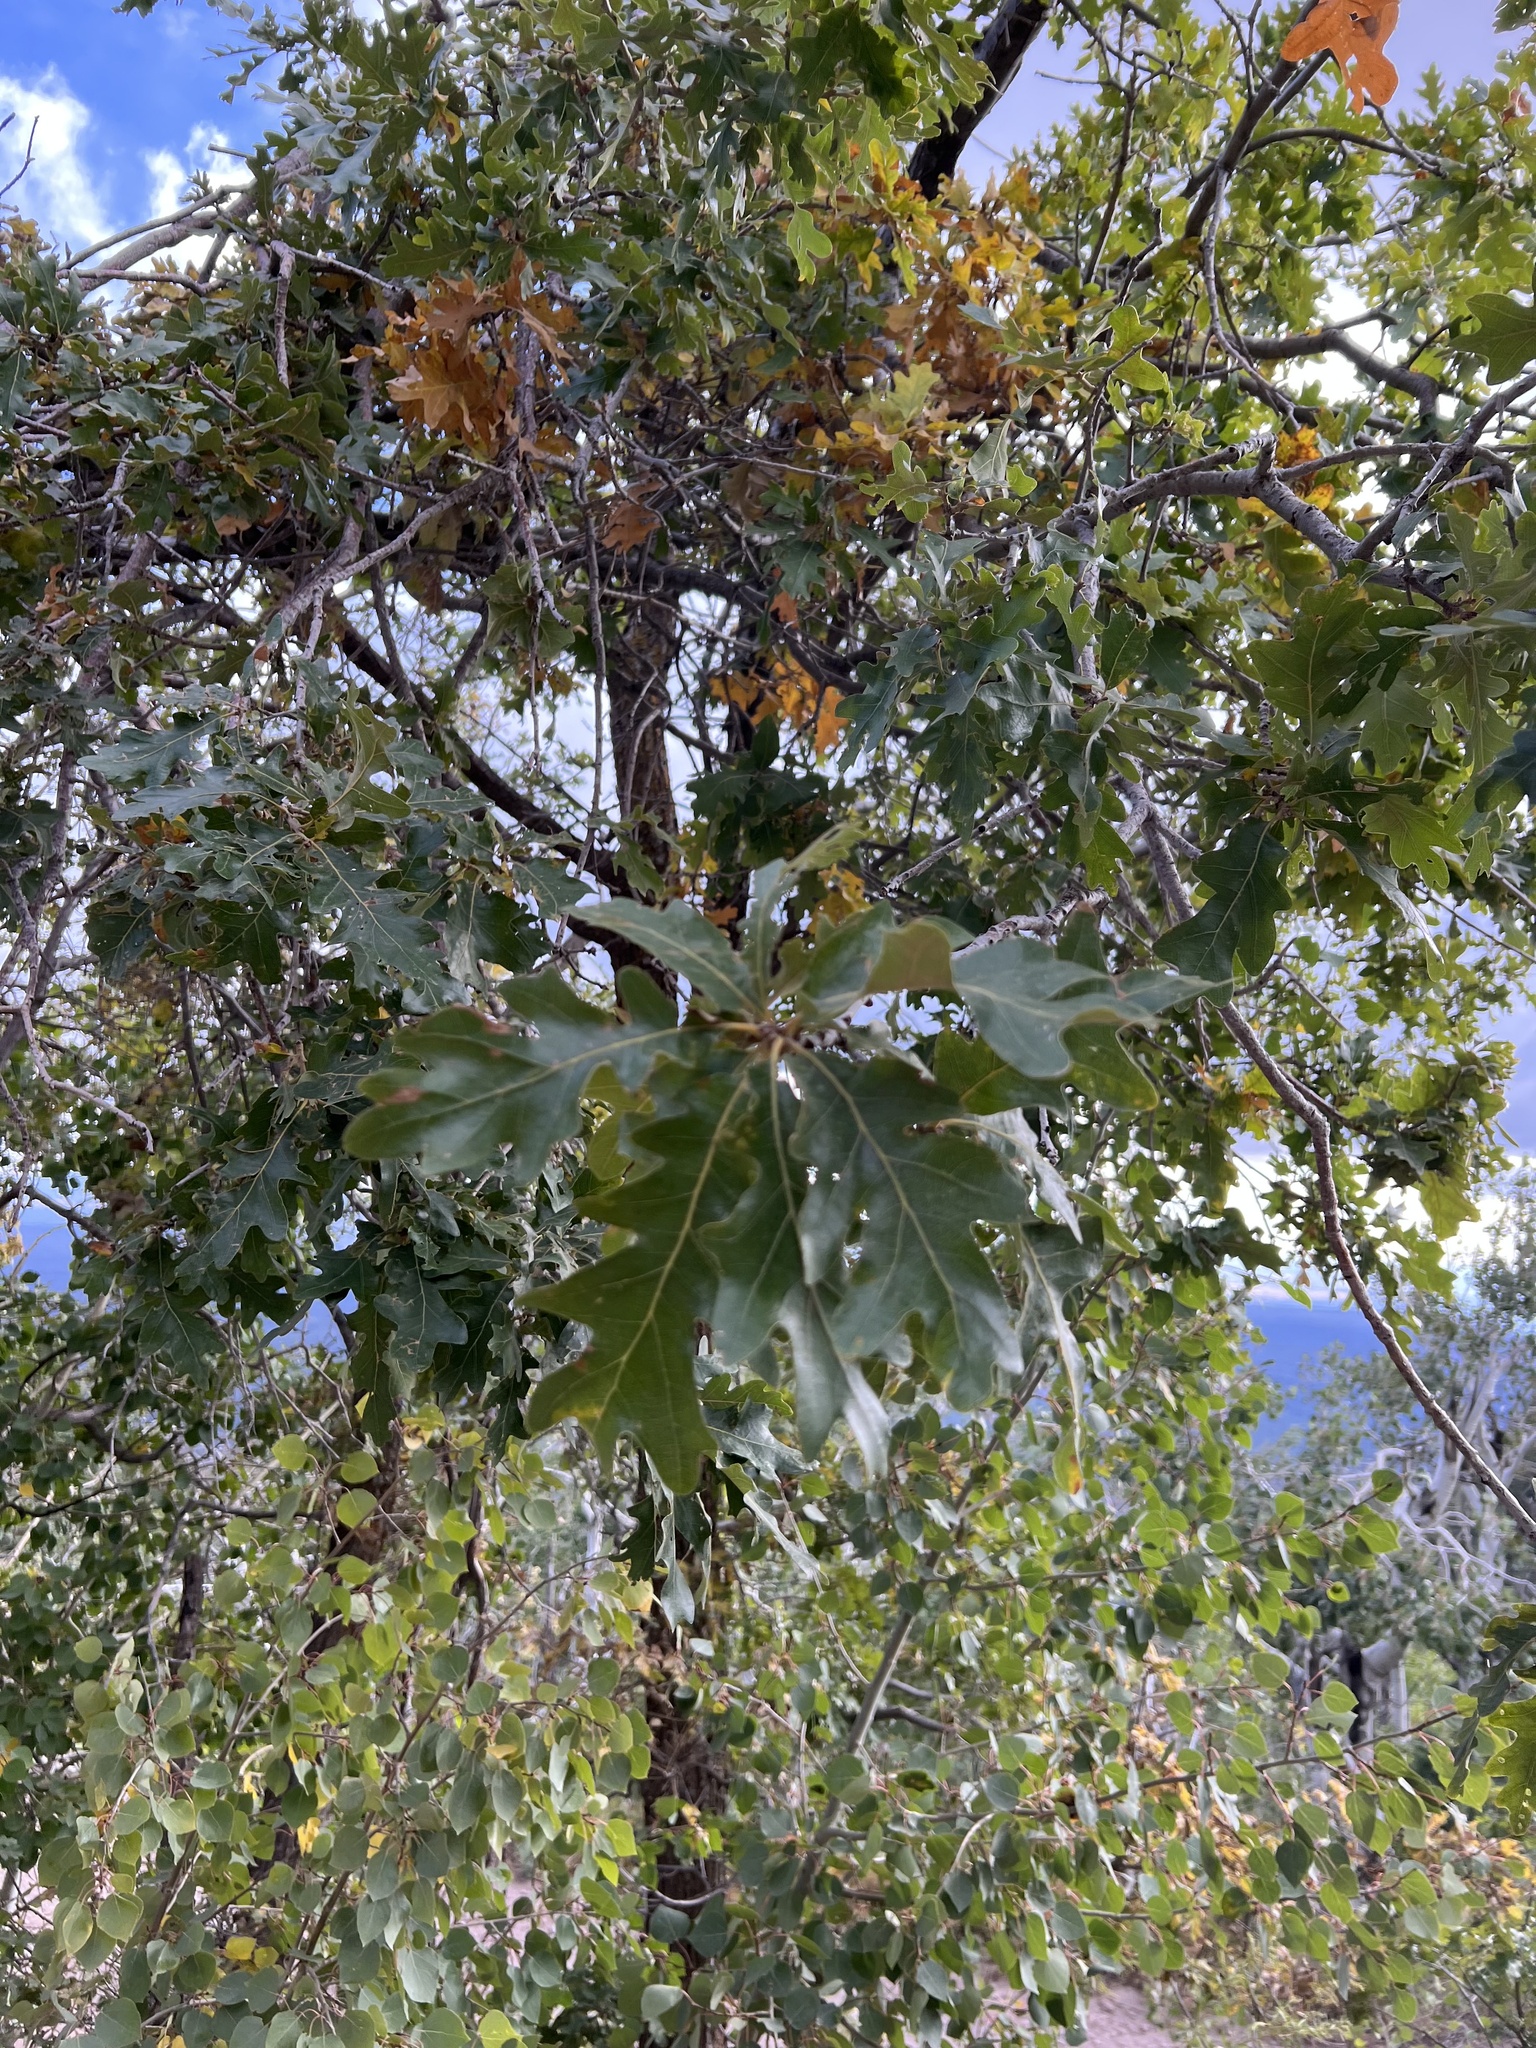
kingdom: Plantae
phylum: Tracheophyta
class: Magnoliopsida
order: Fagales
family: Fagaceae
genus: Quercus
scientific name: Quercus gambelii
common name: Gambel oak
